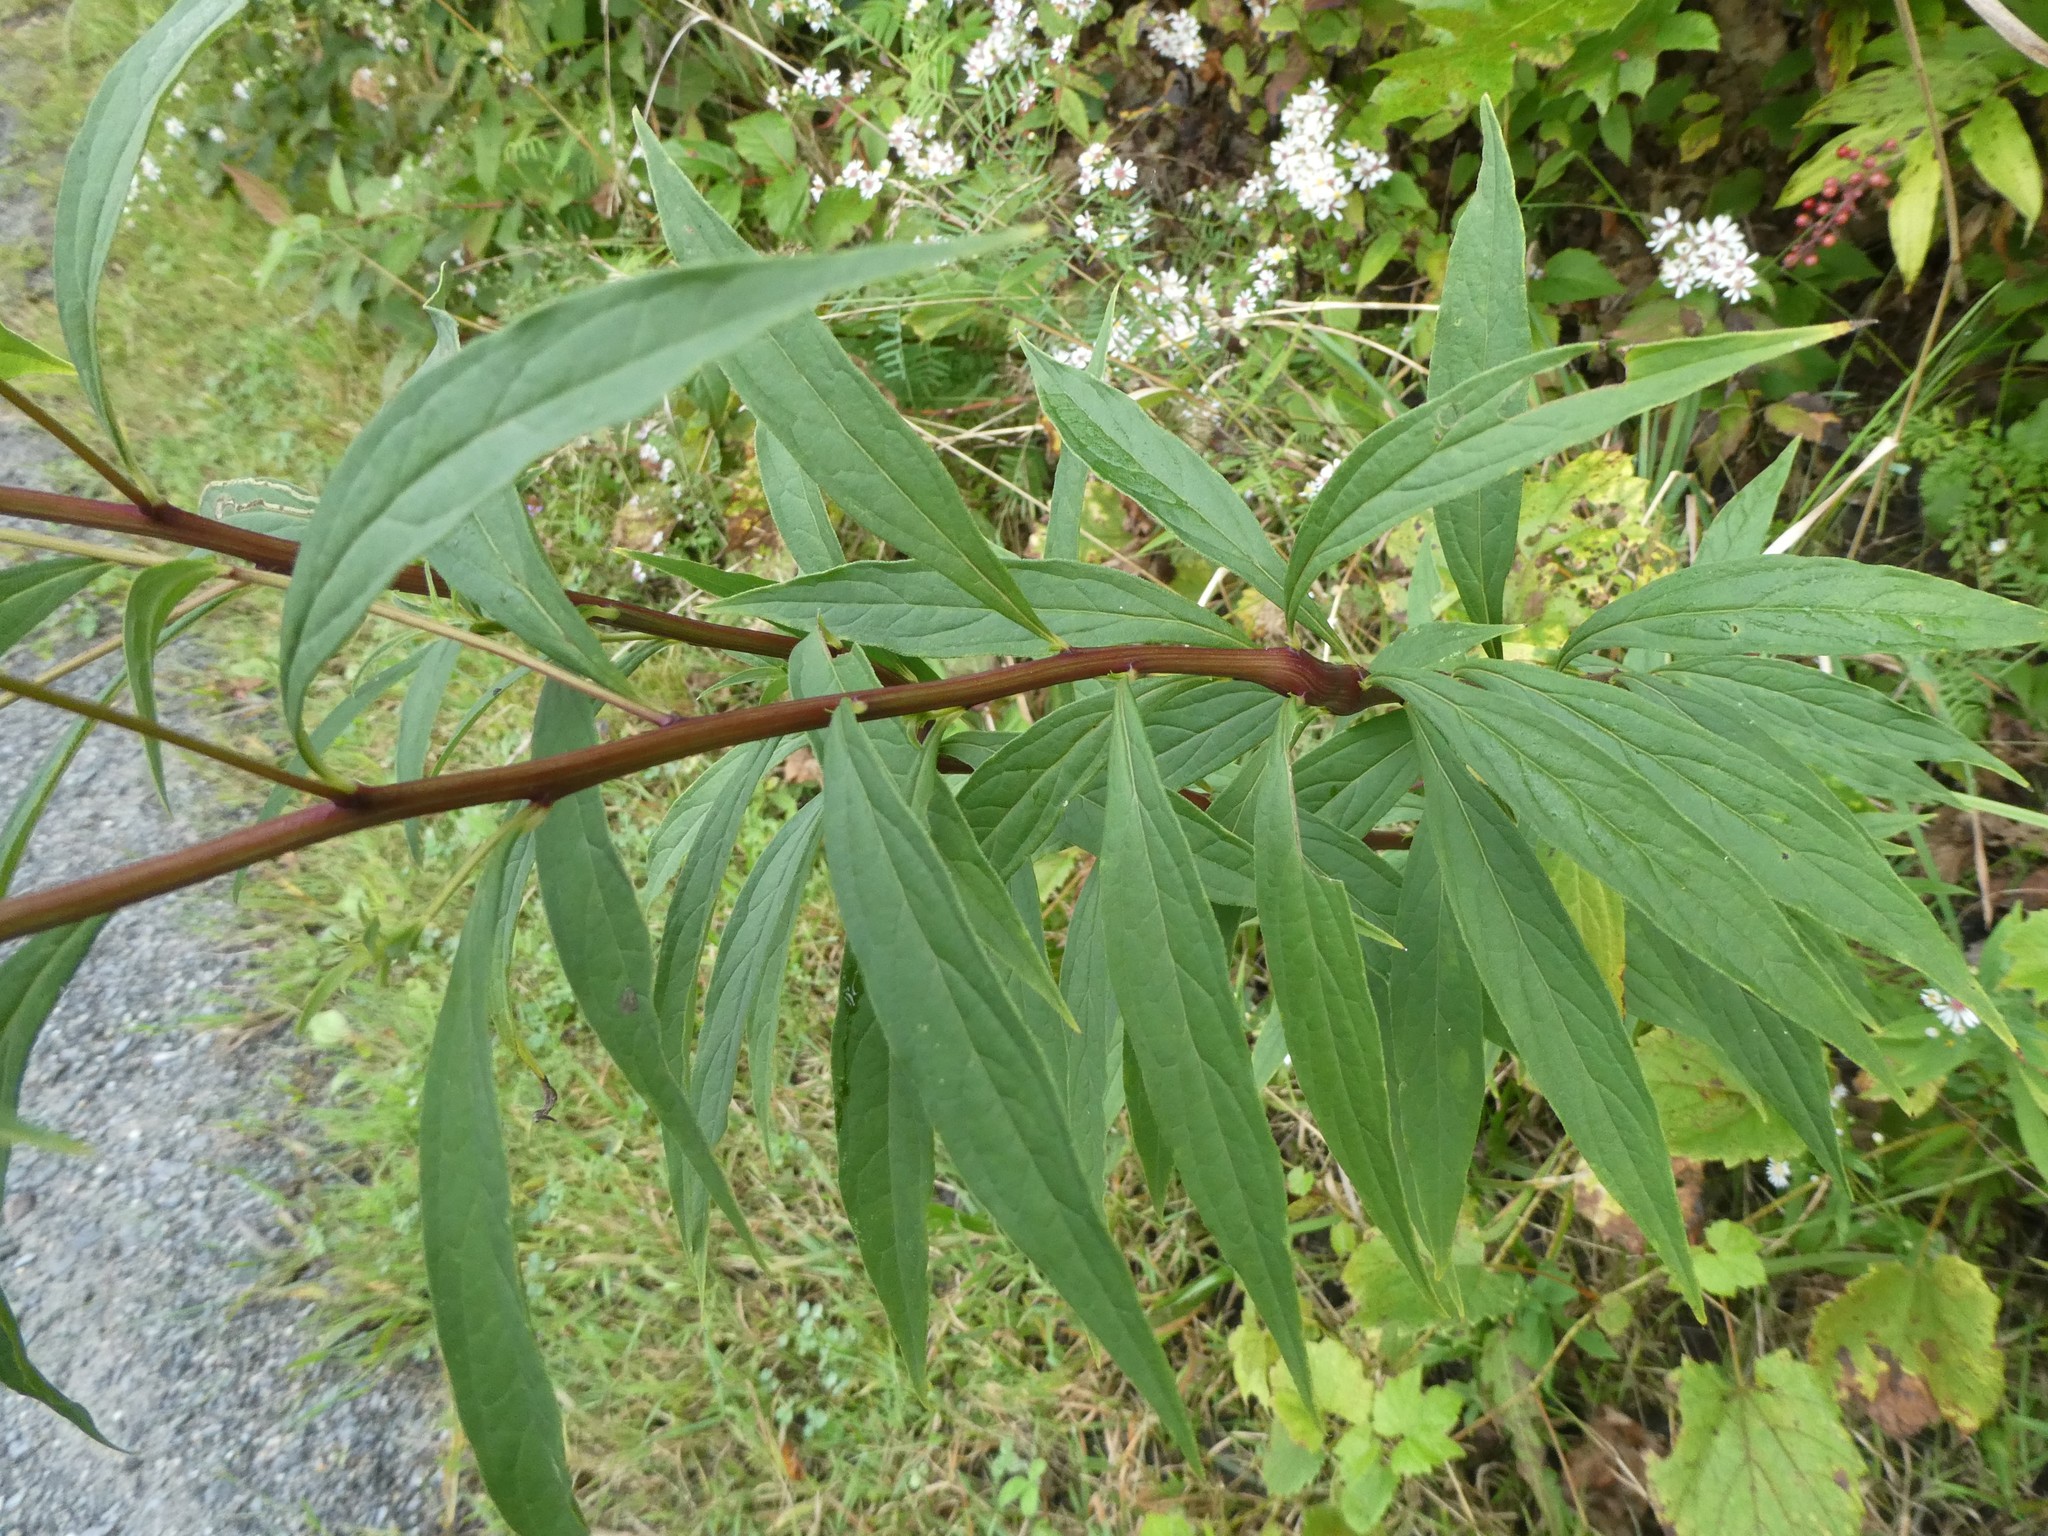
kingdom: Plantae
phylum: Tracheophyta
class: Magnoliopsida
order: Asterales
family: Asteraceae
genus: Doellingeria
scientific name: Doellingeria umbellata
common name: Flat-top white aster
